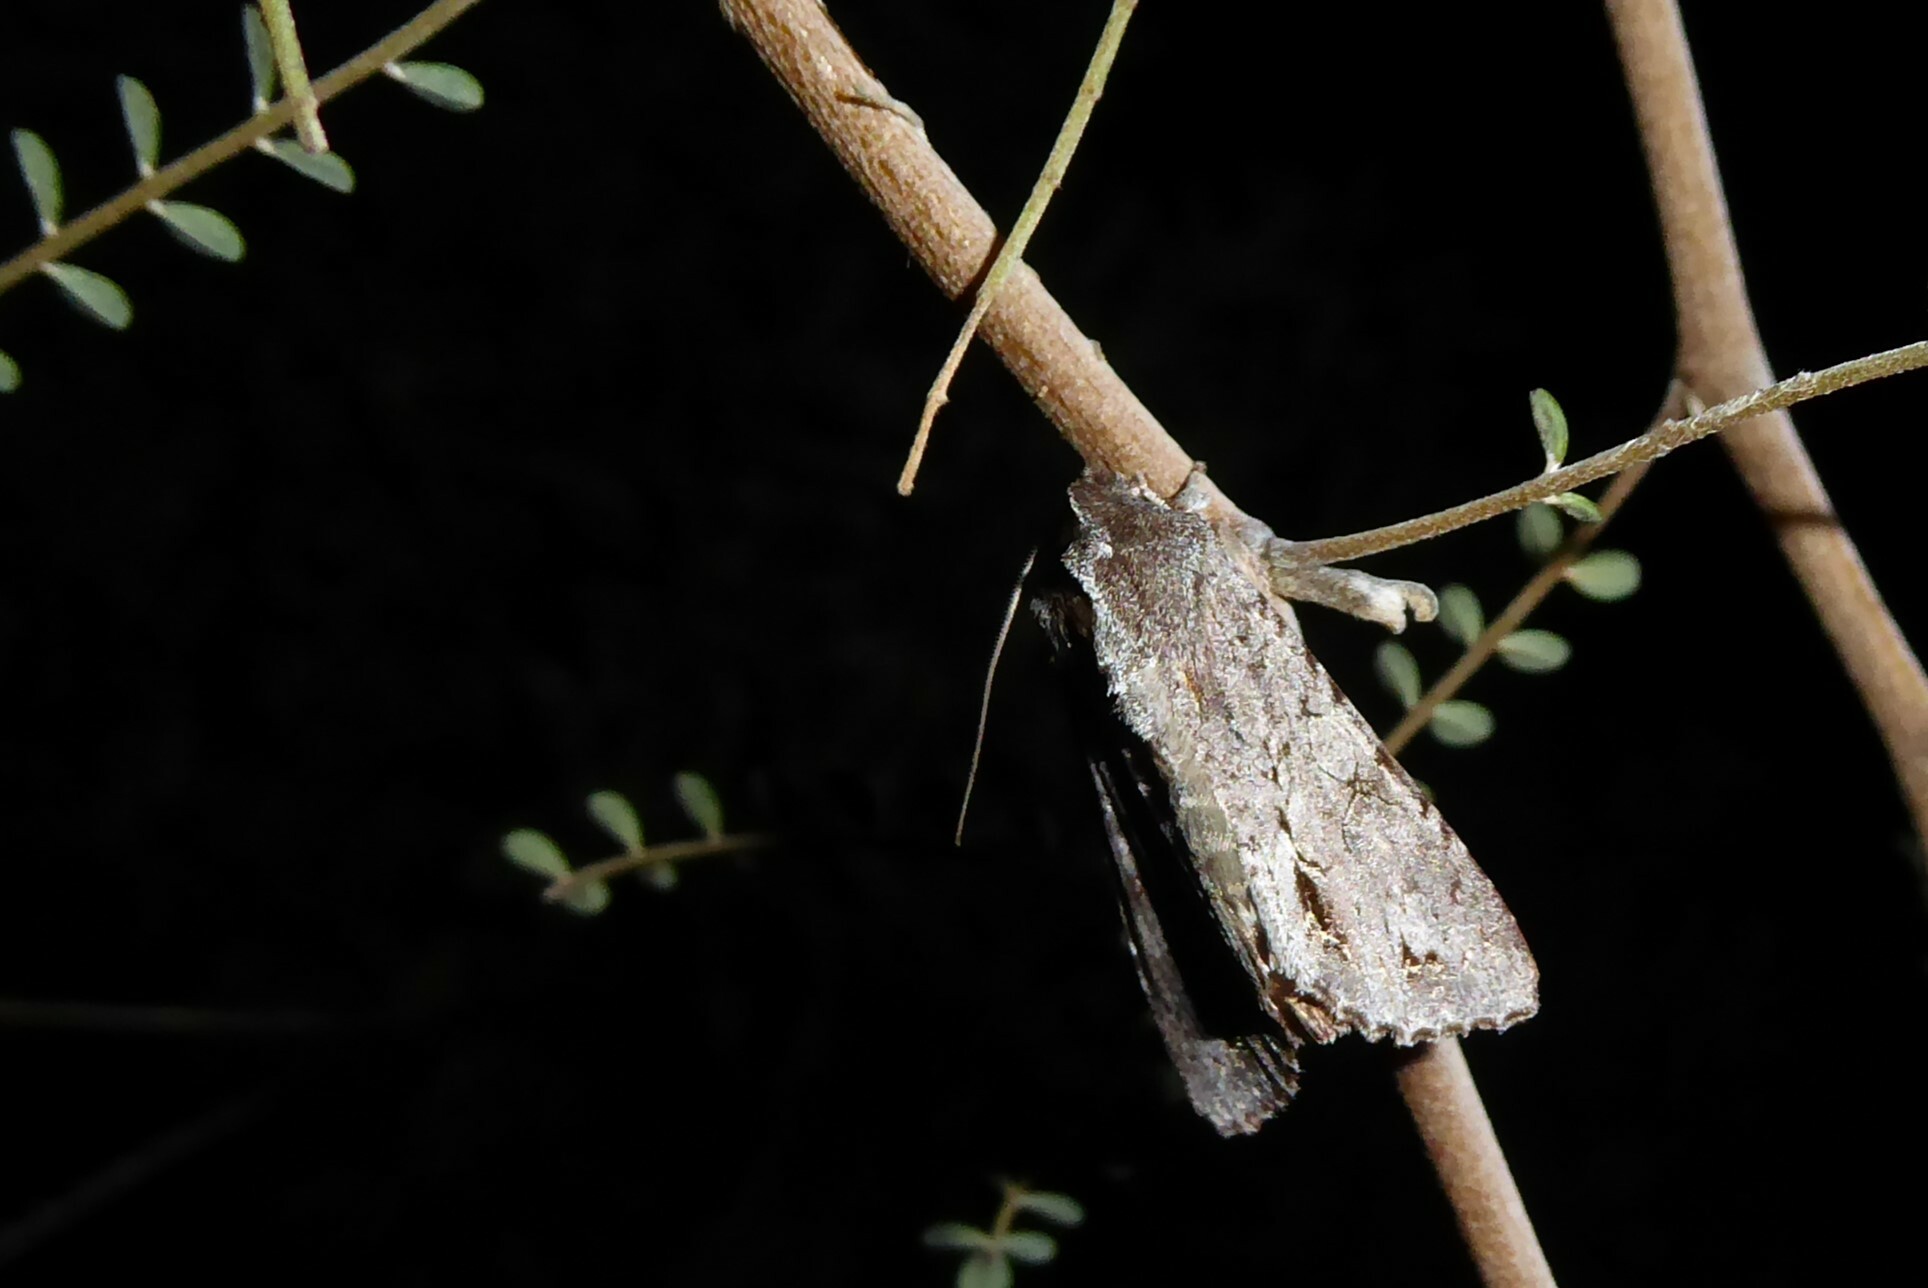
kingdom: Animalia
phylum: Arthropoda
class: Insecta
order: Lepidoptera
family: Noctuidae
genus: Ichneutica
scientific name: Ichneutica
